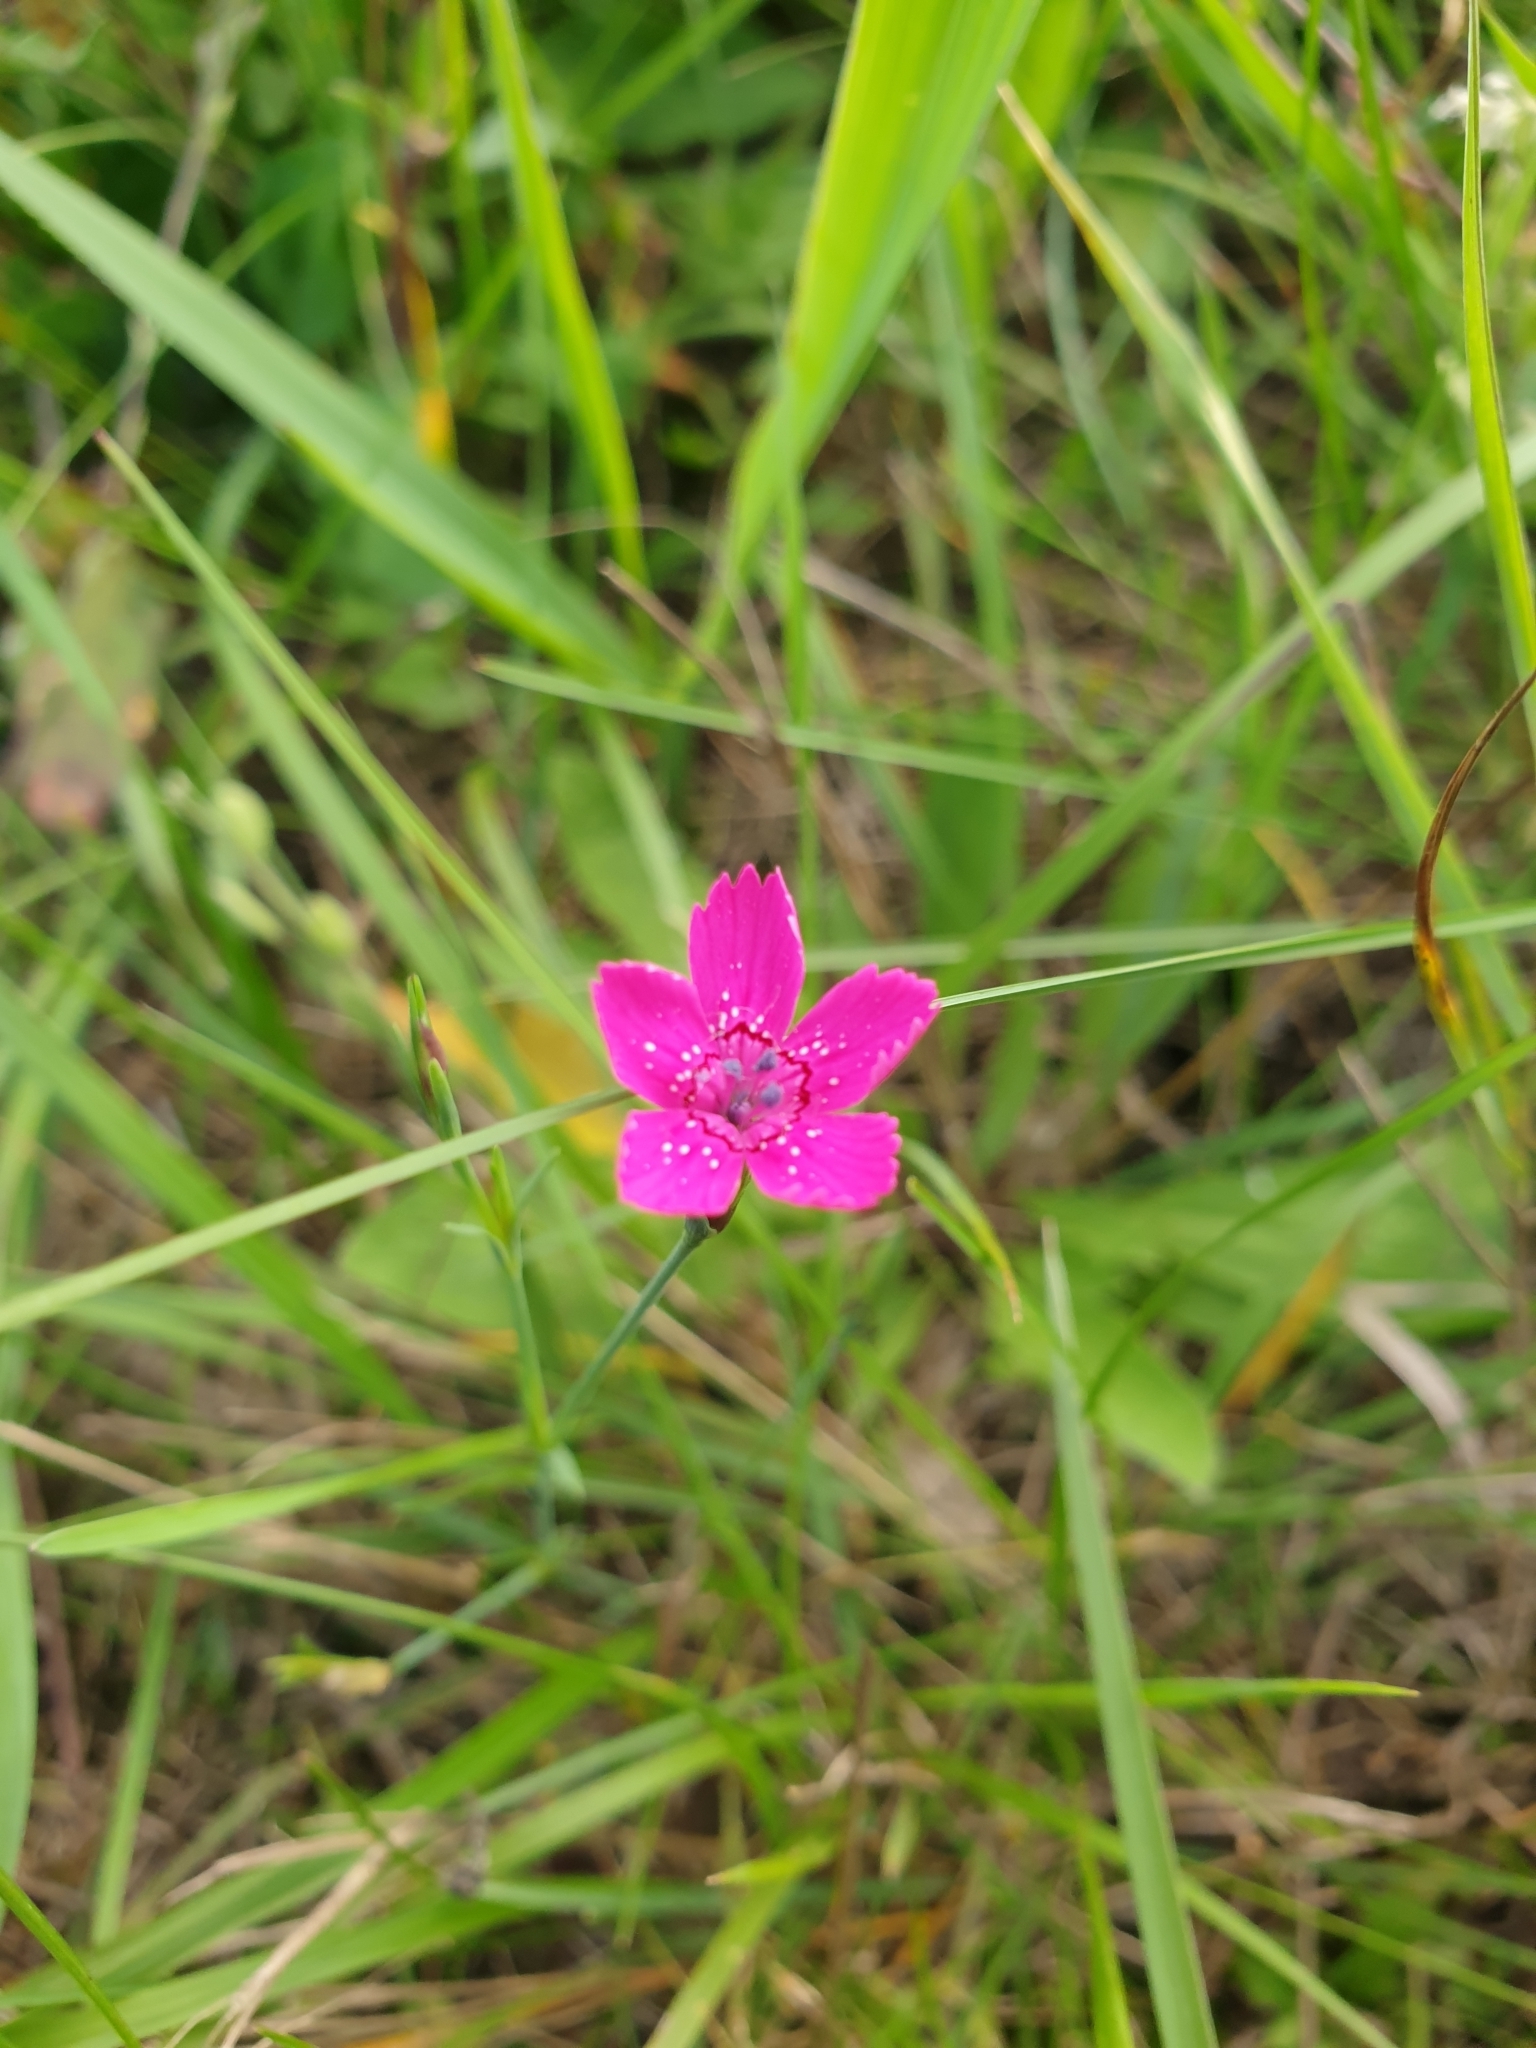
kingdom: Plantae
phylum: Tracheophyta
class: Magnoliopsida
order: Caryophyllales
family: Caryophyllaceae
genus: Dianthus
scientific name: Dianthus deltoides
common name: Maiden pink
